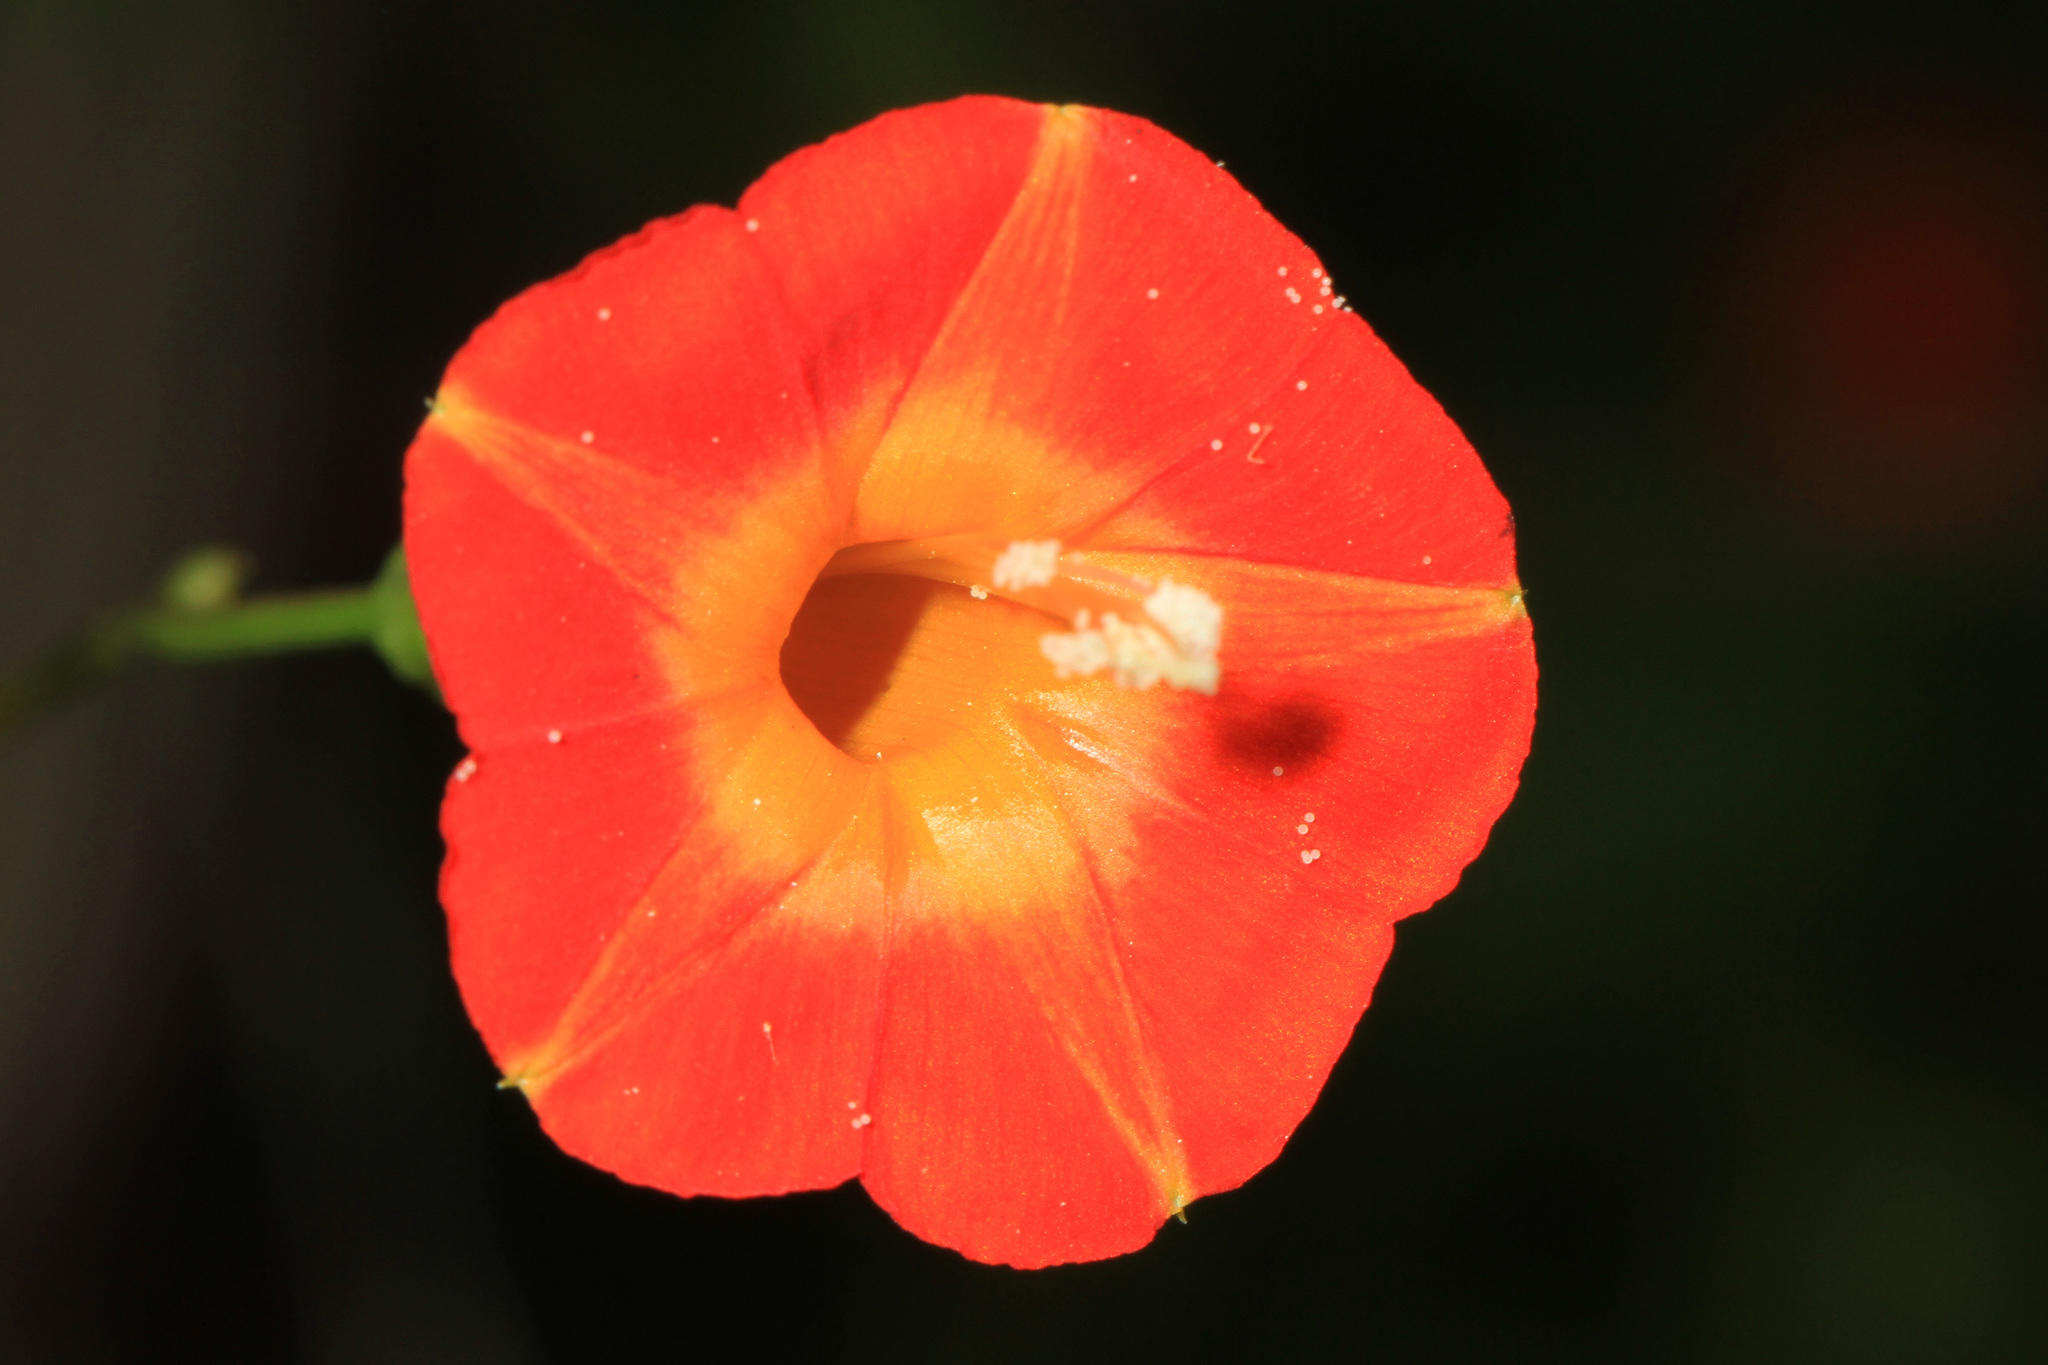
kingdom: Plantae
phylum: Tracheophyta
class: Magnoliopsida
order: Solanales
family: Convolvulaceae
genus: Ipomoea
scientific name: Ipomoea coccinea
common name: Red morning-glory
